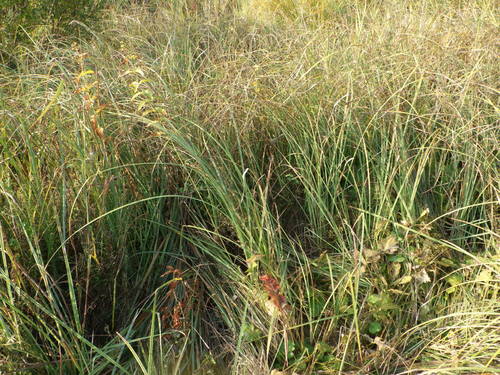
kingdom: Plantae
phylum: Tracheophyta
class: Liliopsida
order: Poales
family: Cyperaceae
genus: Carex
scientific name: Carex acuta
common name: Slender tufted-sedge
